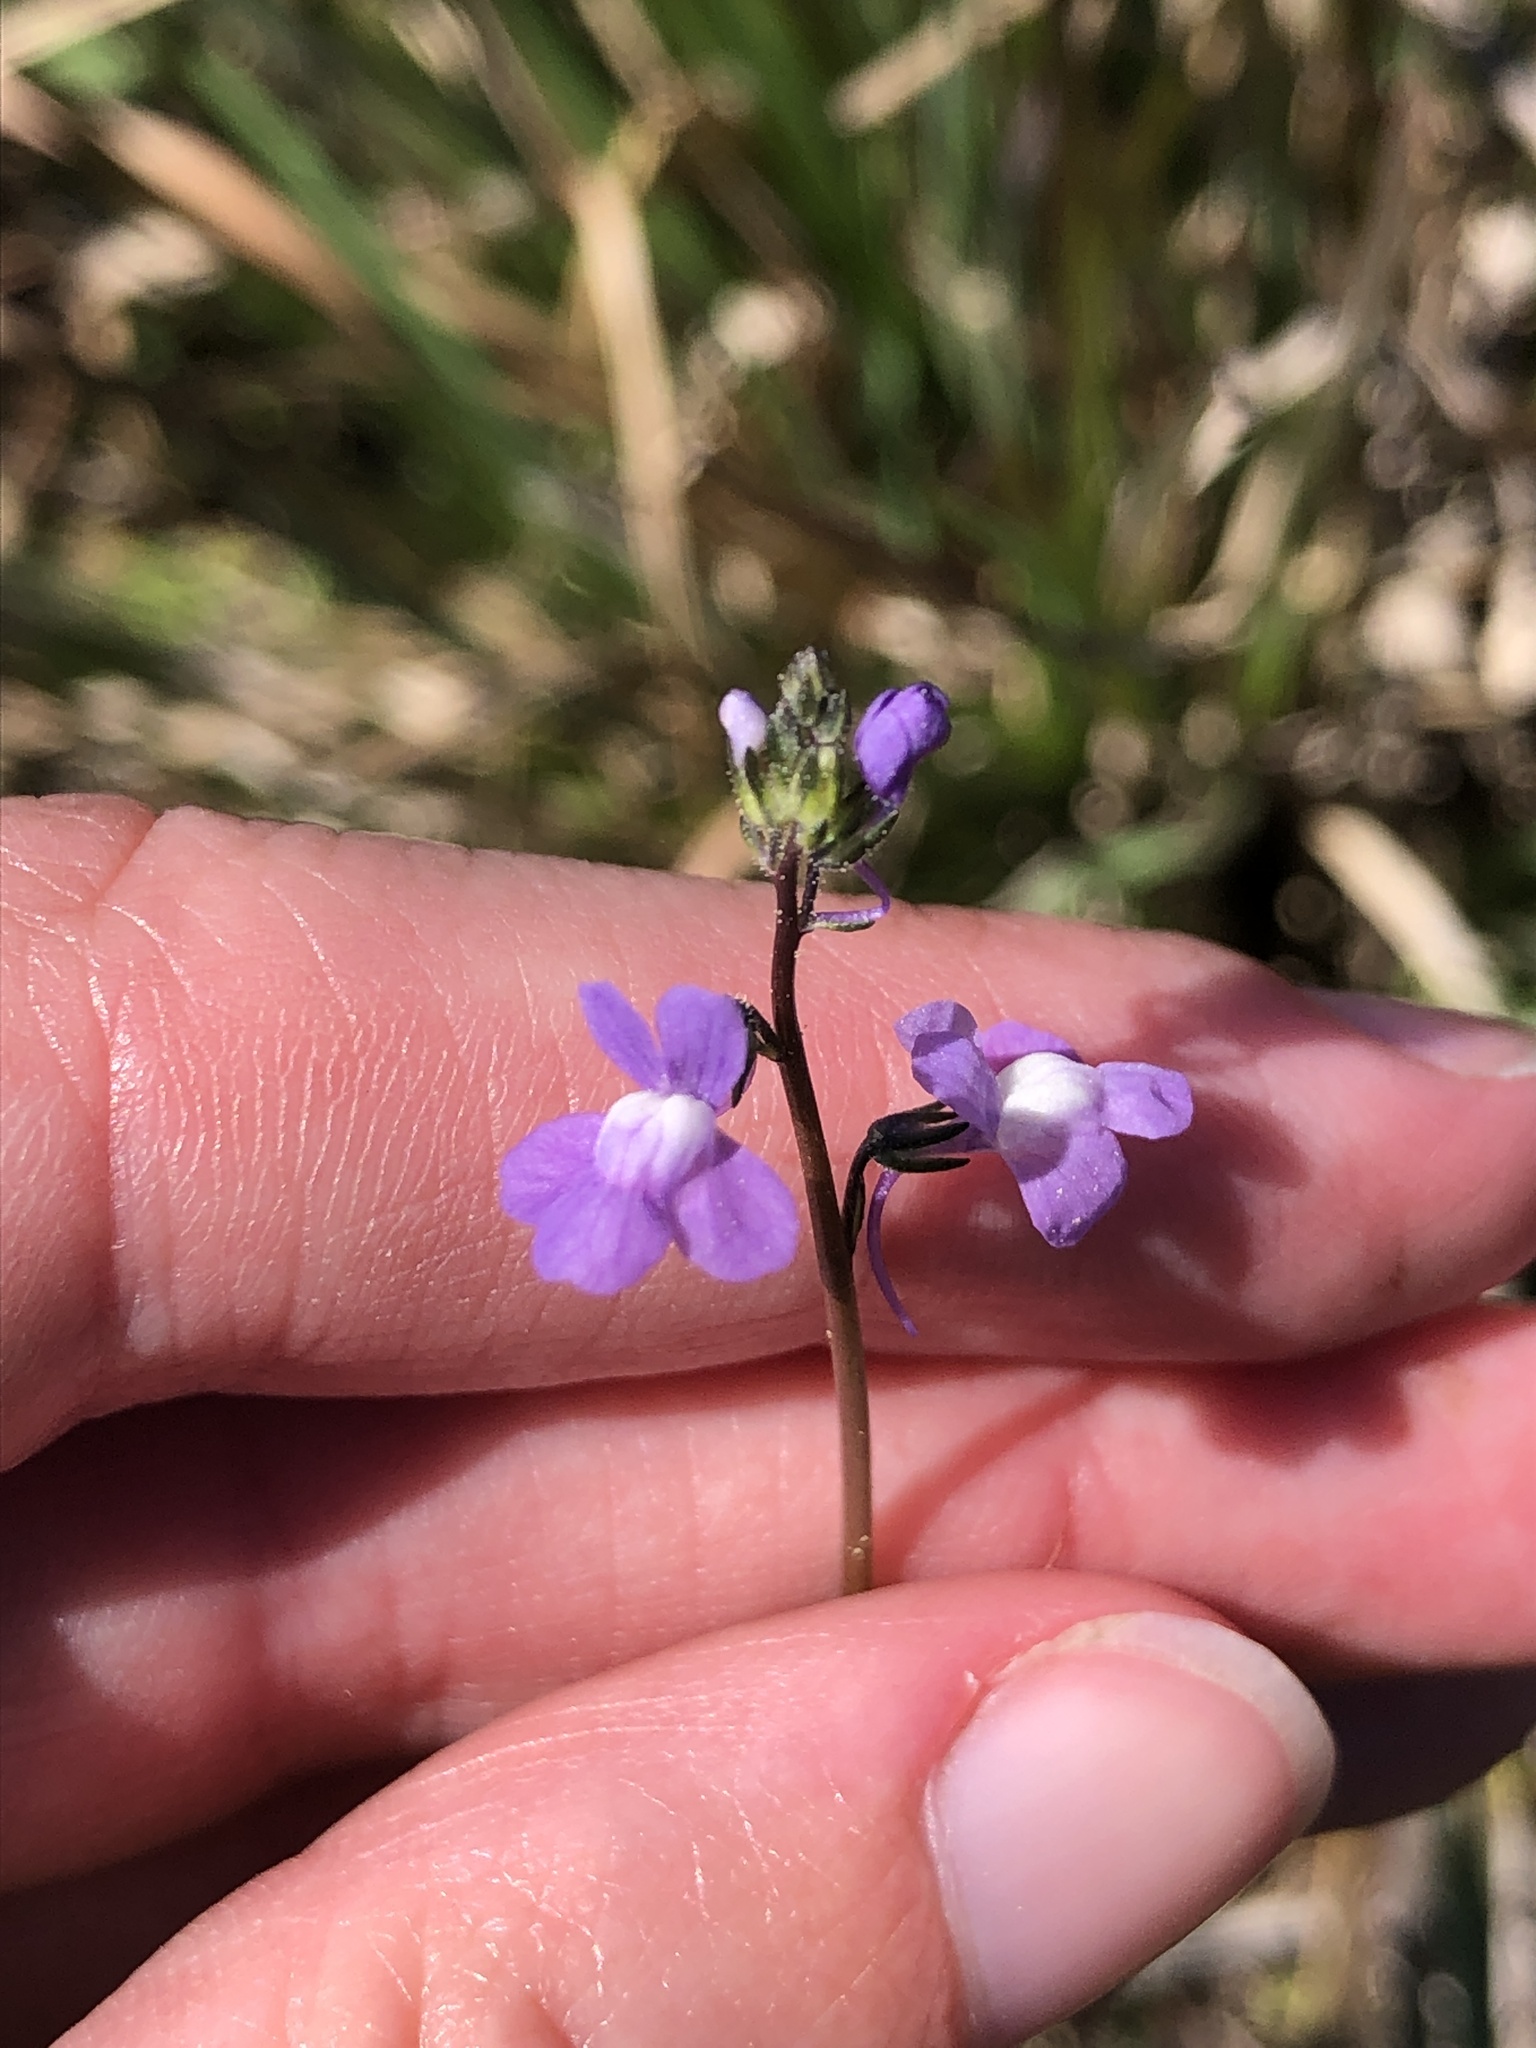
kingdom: Plantae
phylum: Tracheophyta
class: Magnoliopsida
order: Lamiales
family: Plantaginaceae
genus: Nuttallanthus
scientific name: Nuttallanthus canadensis
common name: Blue toadflax
